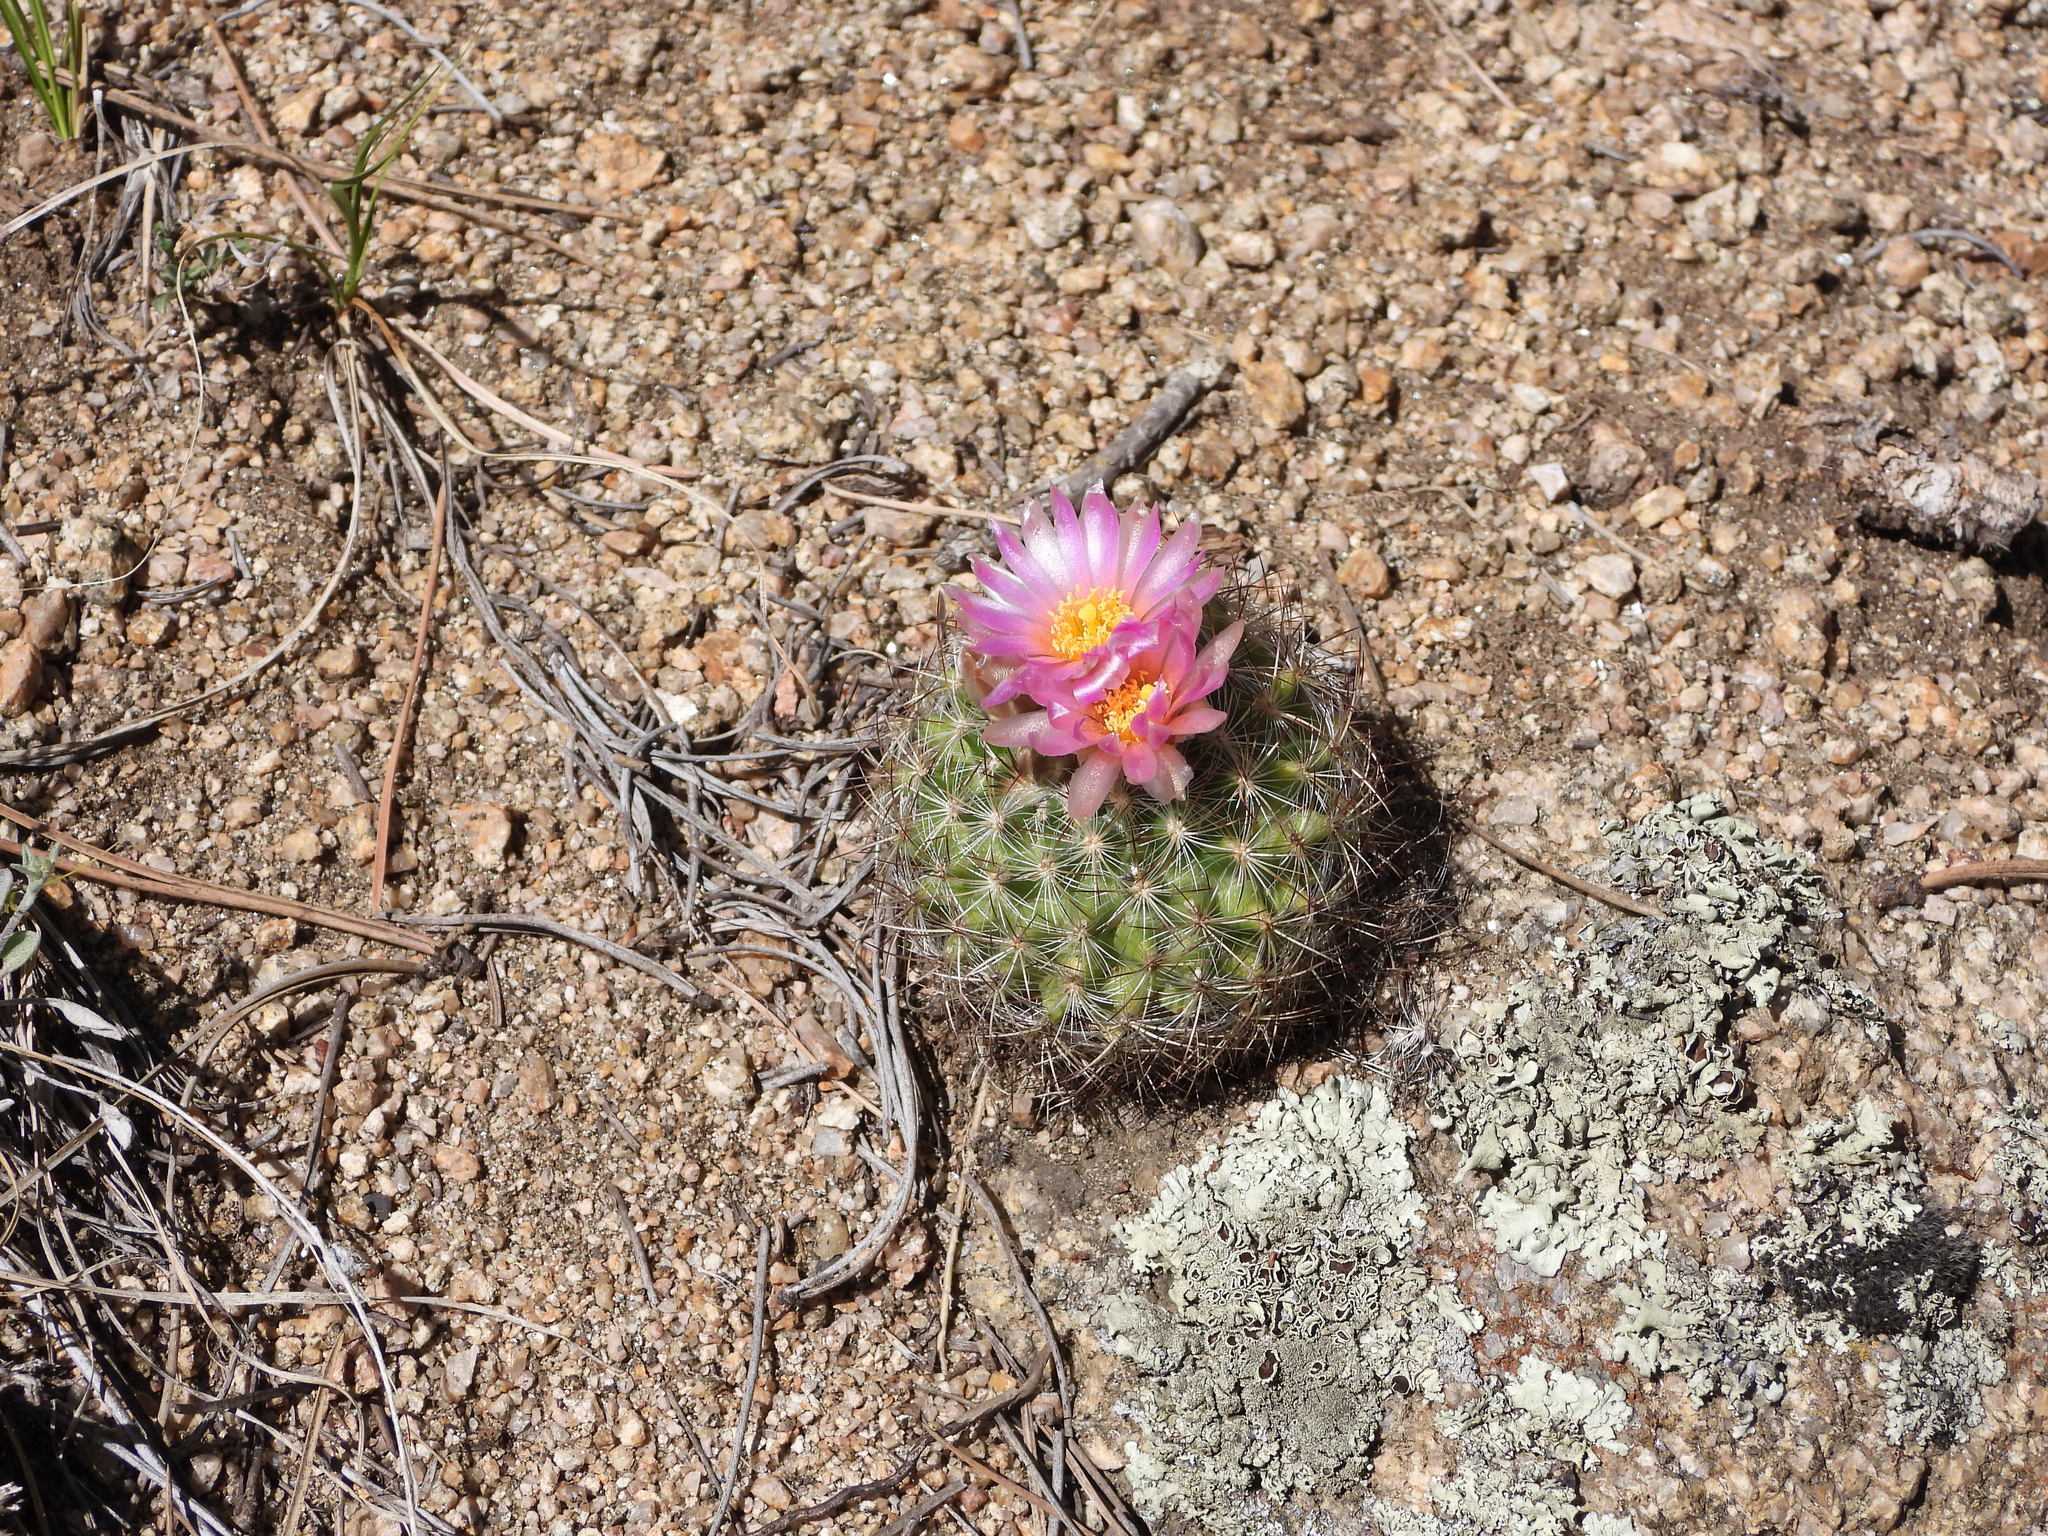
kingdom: Plantae
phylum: Tracheophyta
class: Magnoliopsida
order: Caryophyllales
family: Cactaceae
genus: Pediocactus
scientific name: Pediocactus simpsonii
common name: Simpson's hedgehog cactus
